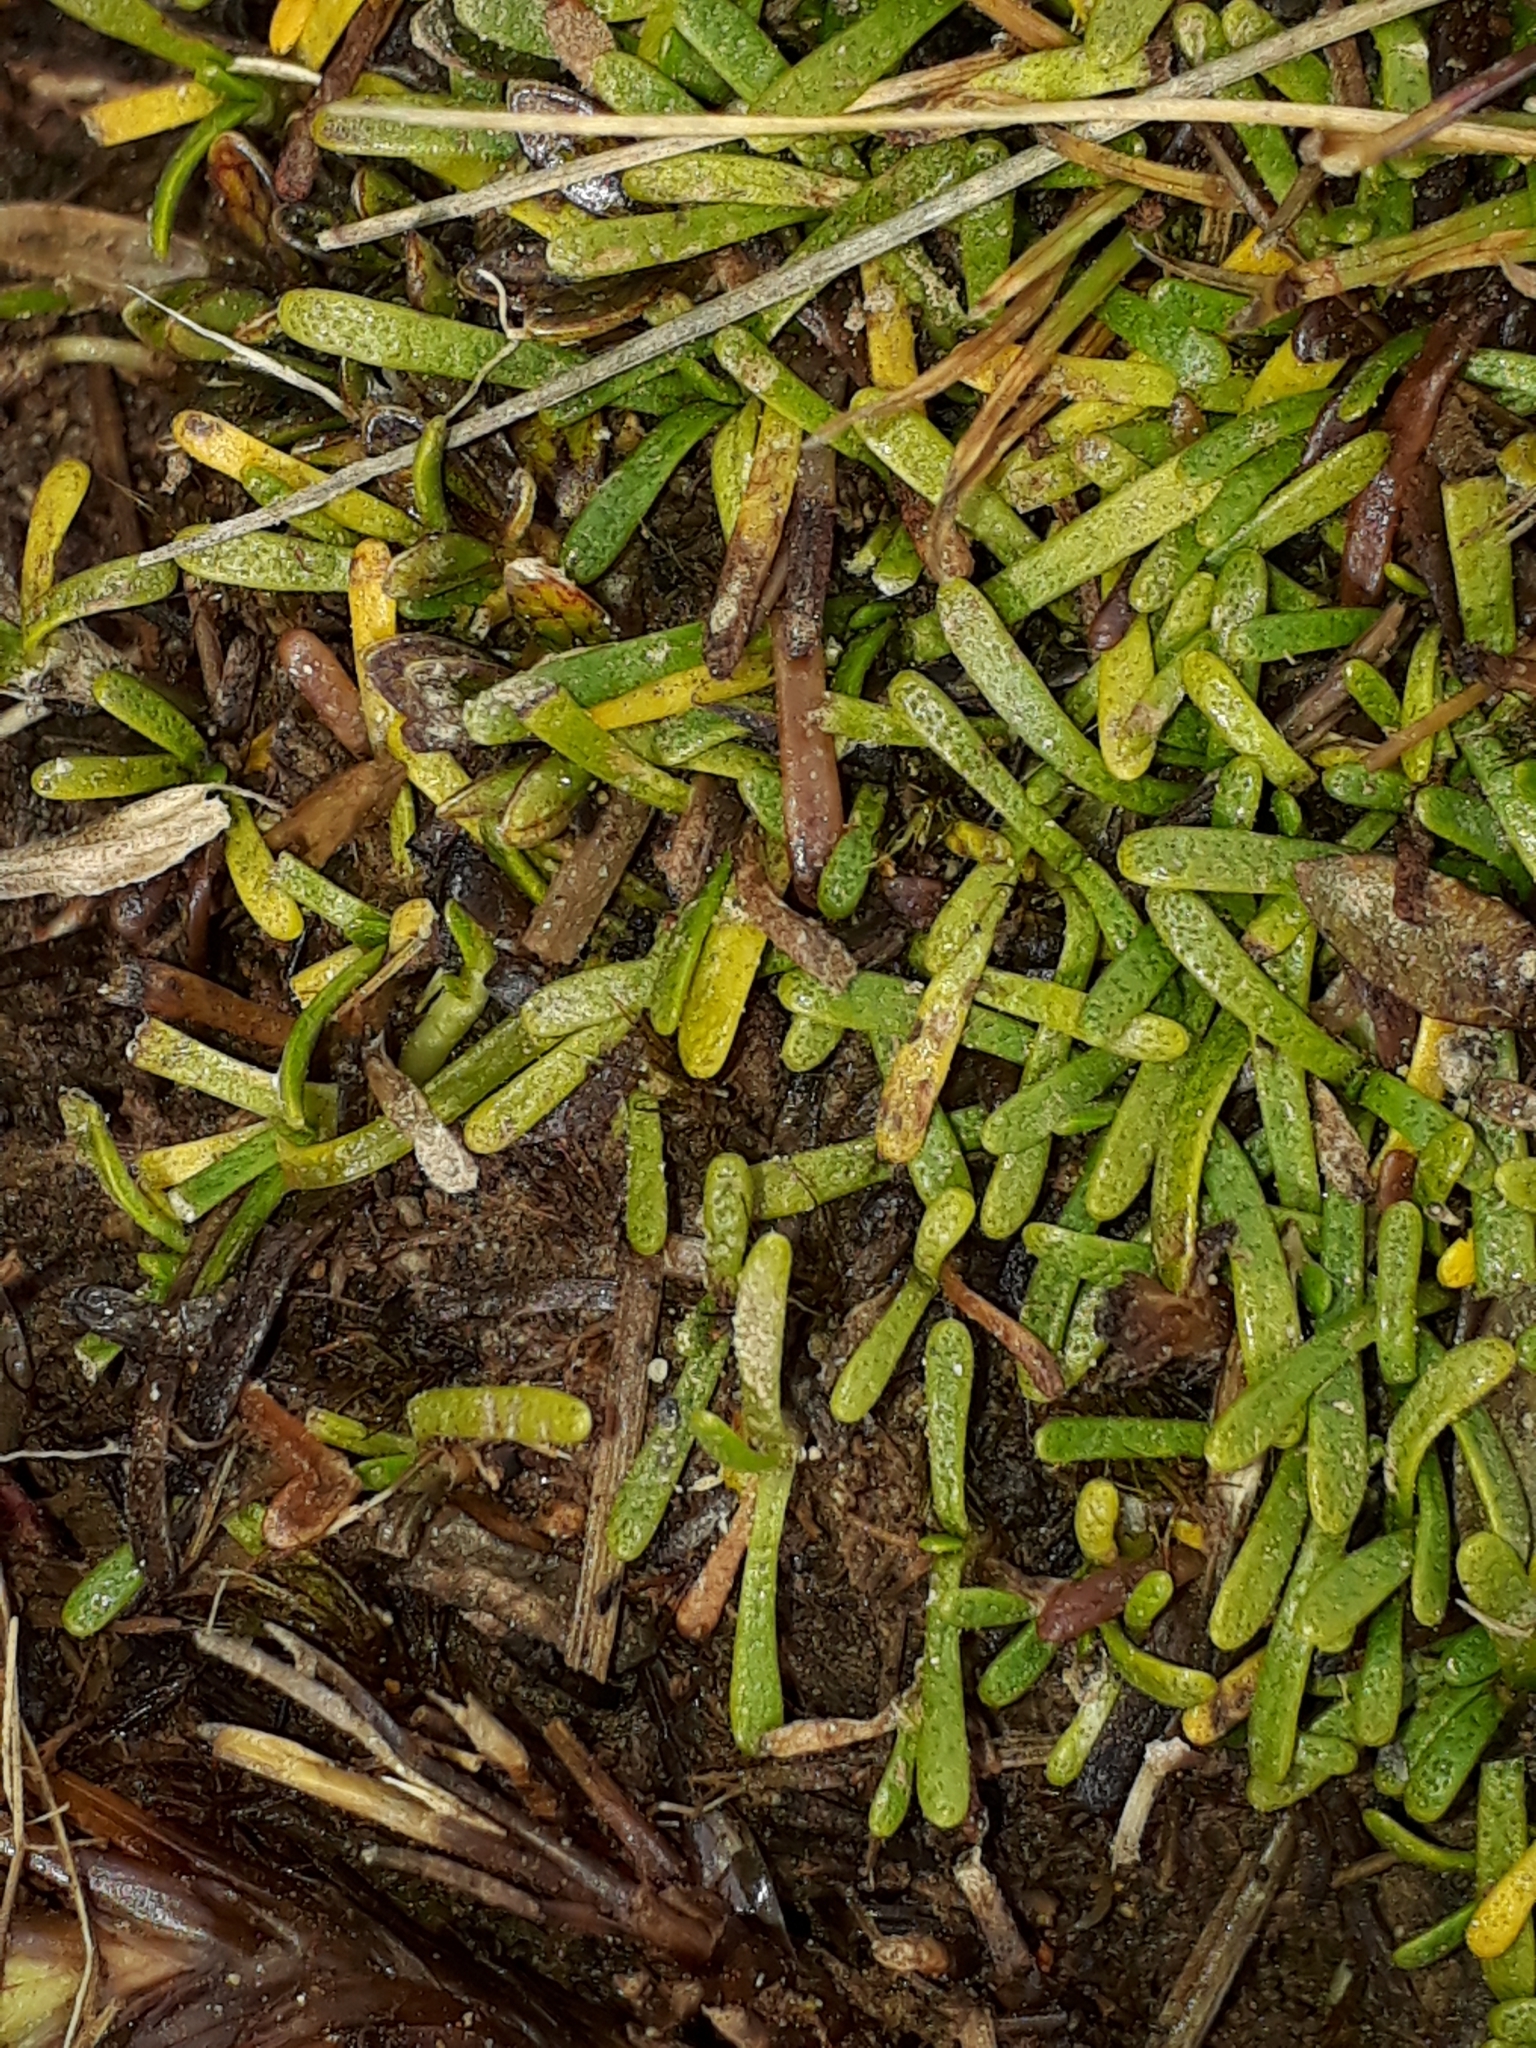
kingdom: Plantae
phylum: Tracheophyta
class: Magnoliopsida
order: Asterales
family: Asteraceae
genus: Abrotanella
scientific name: Abrotanella caespitosa
